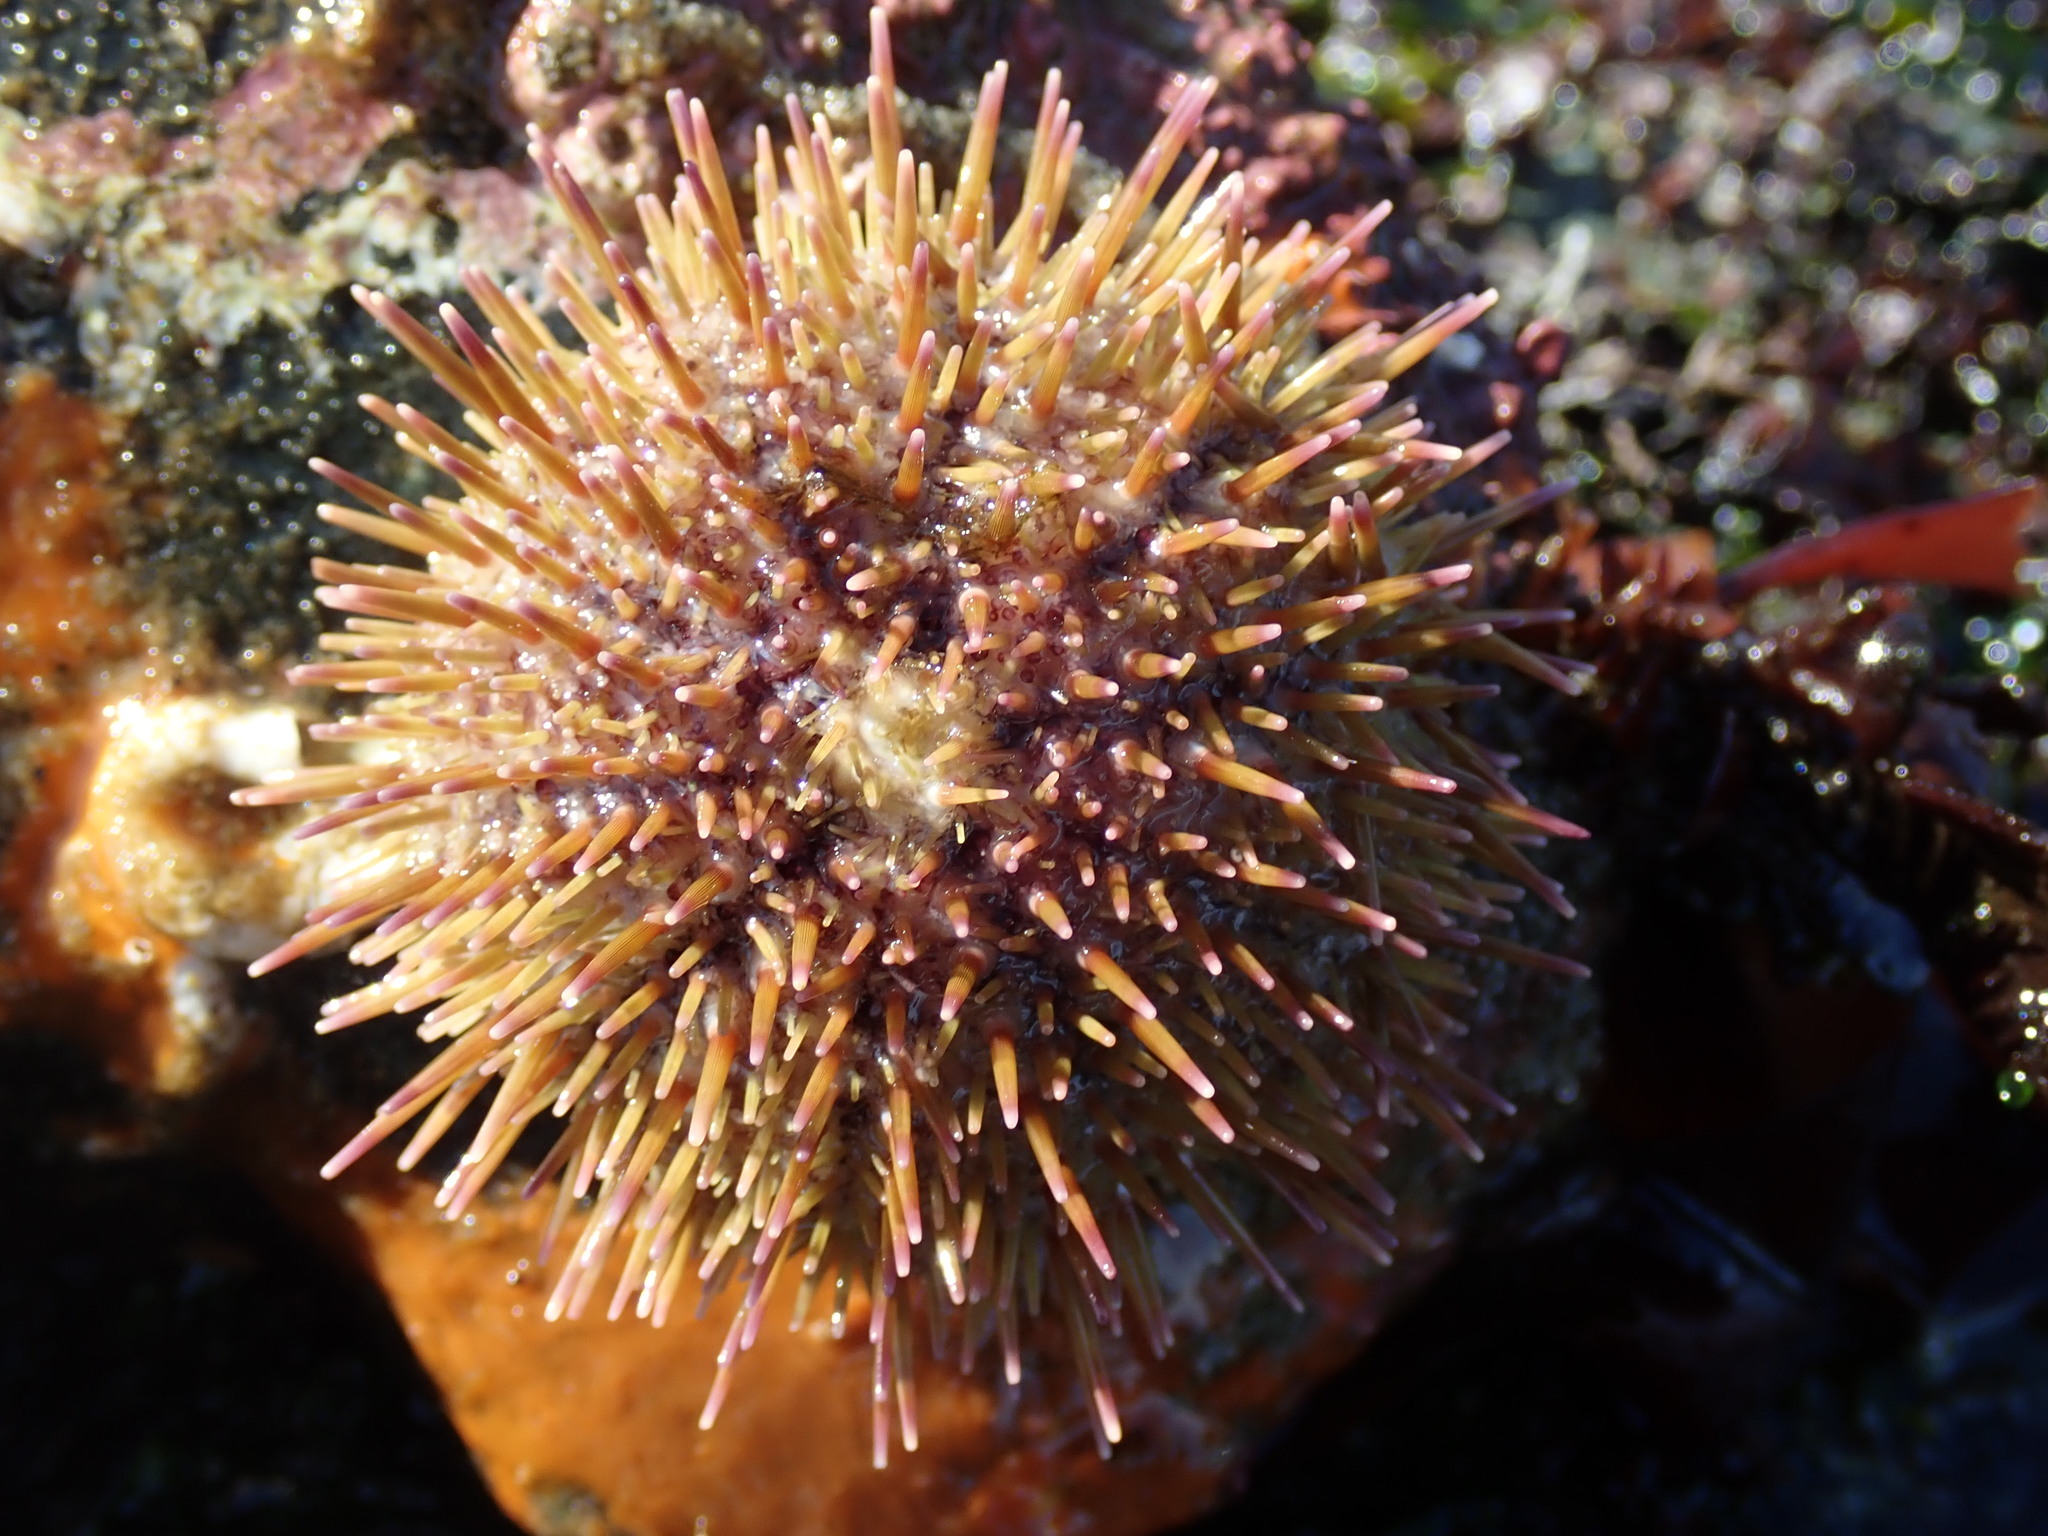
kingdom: Animalia
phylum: Echinodermata
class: Echinoidea
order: Camarodonta
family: Strongylocentrotidae
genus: Strongylocentrotus
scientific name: Strongylocentrotus droebachiensis
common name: Northern sea urchin
